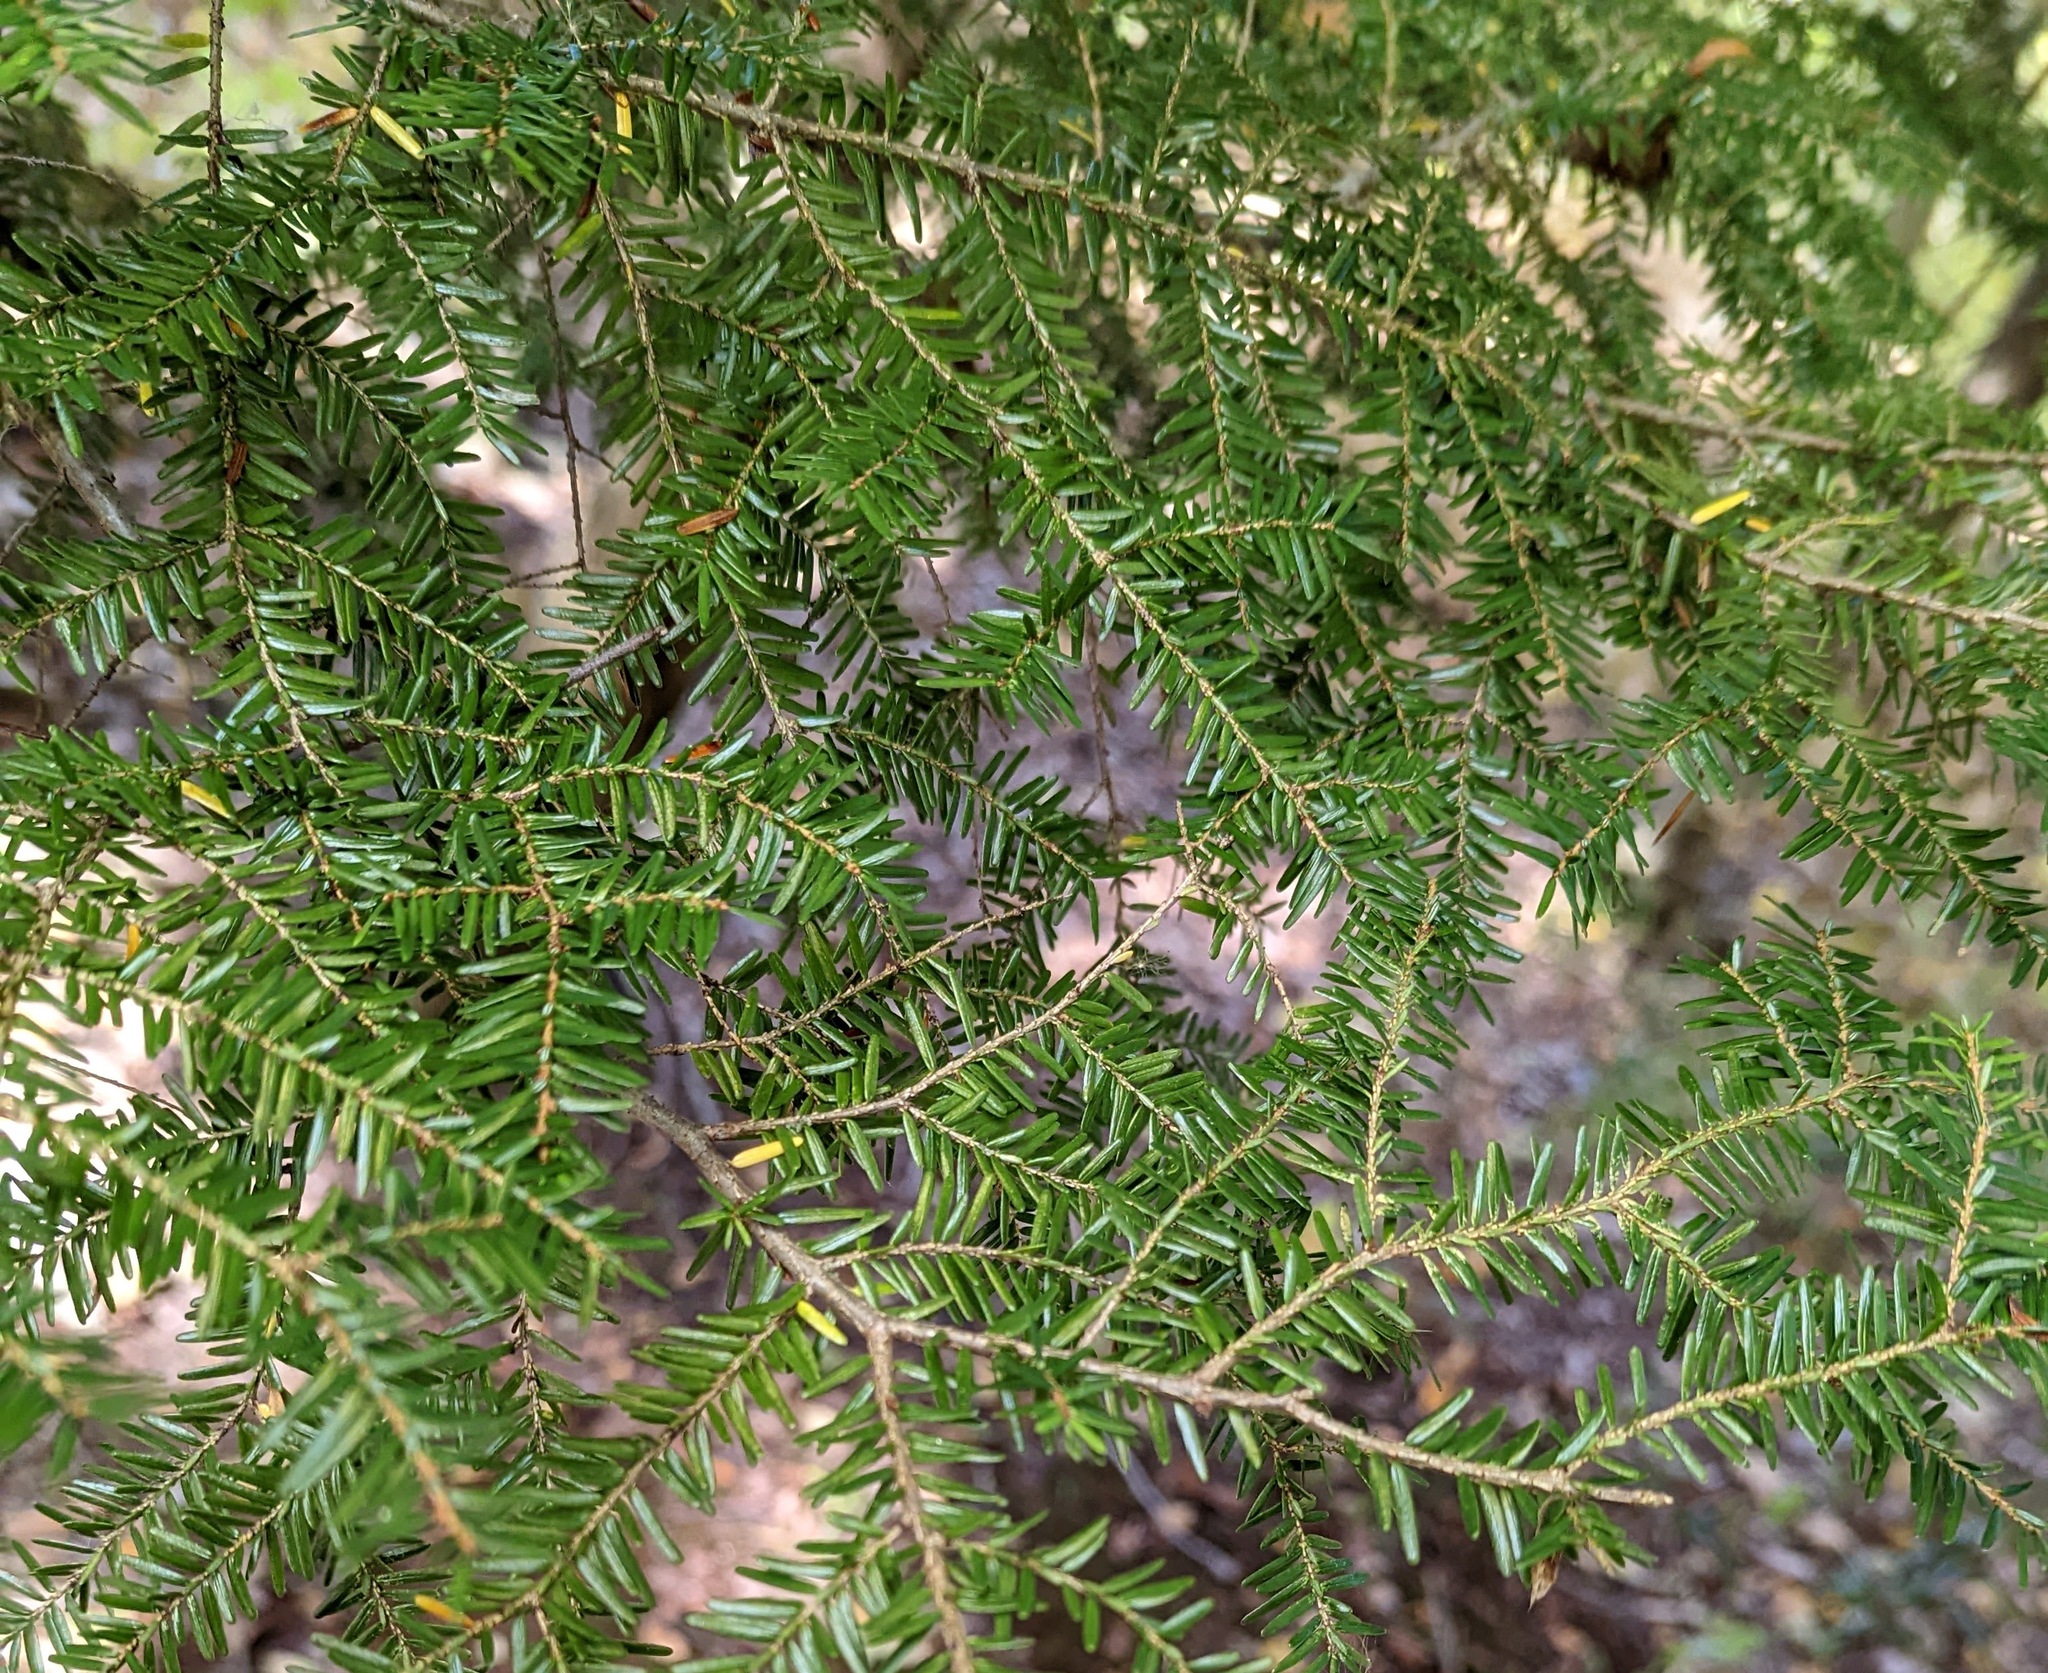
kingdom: Plantae
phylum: Tracheophyta
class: Pinopsida
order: Pinales
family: Pinaceae
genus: Tsuga
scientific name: Tsuga canadensis
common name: Eastern hemlock
